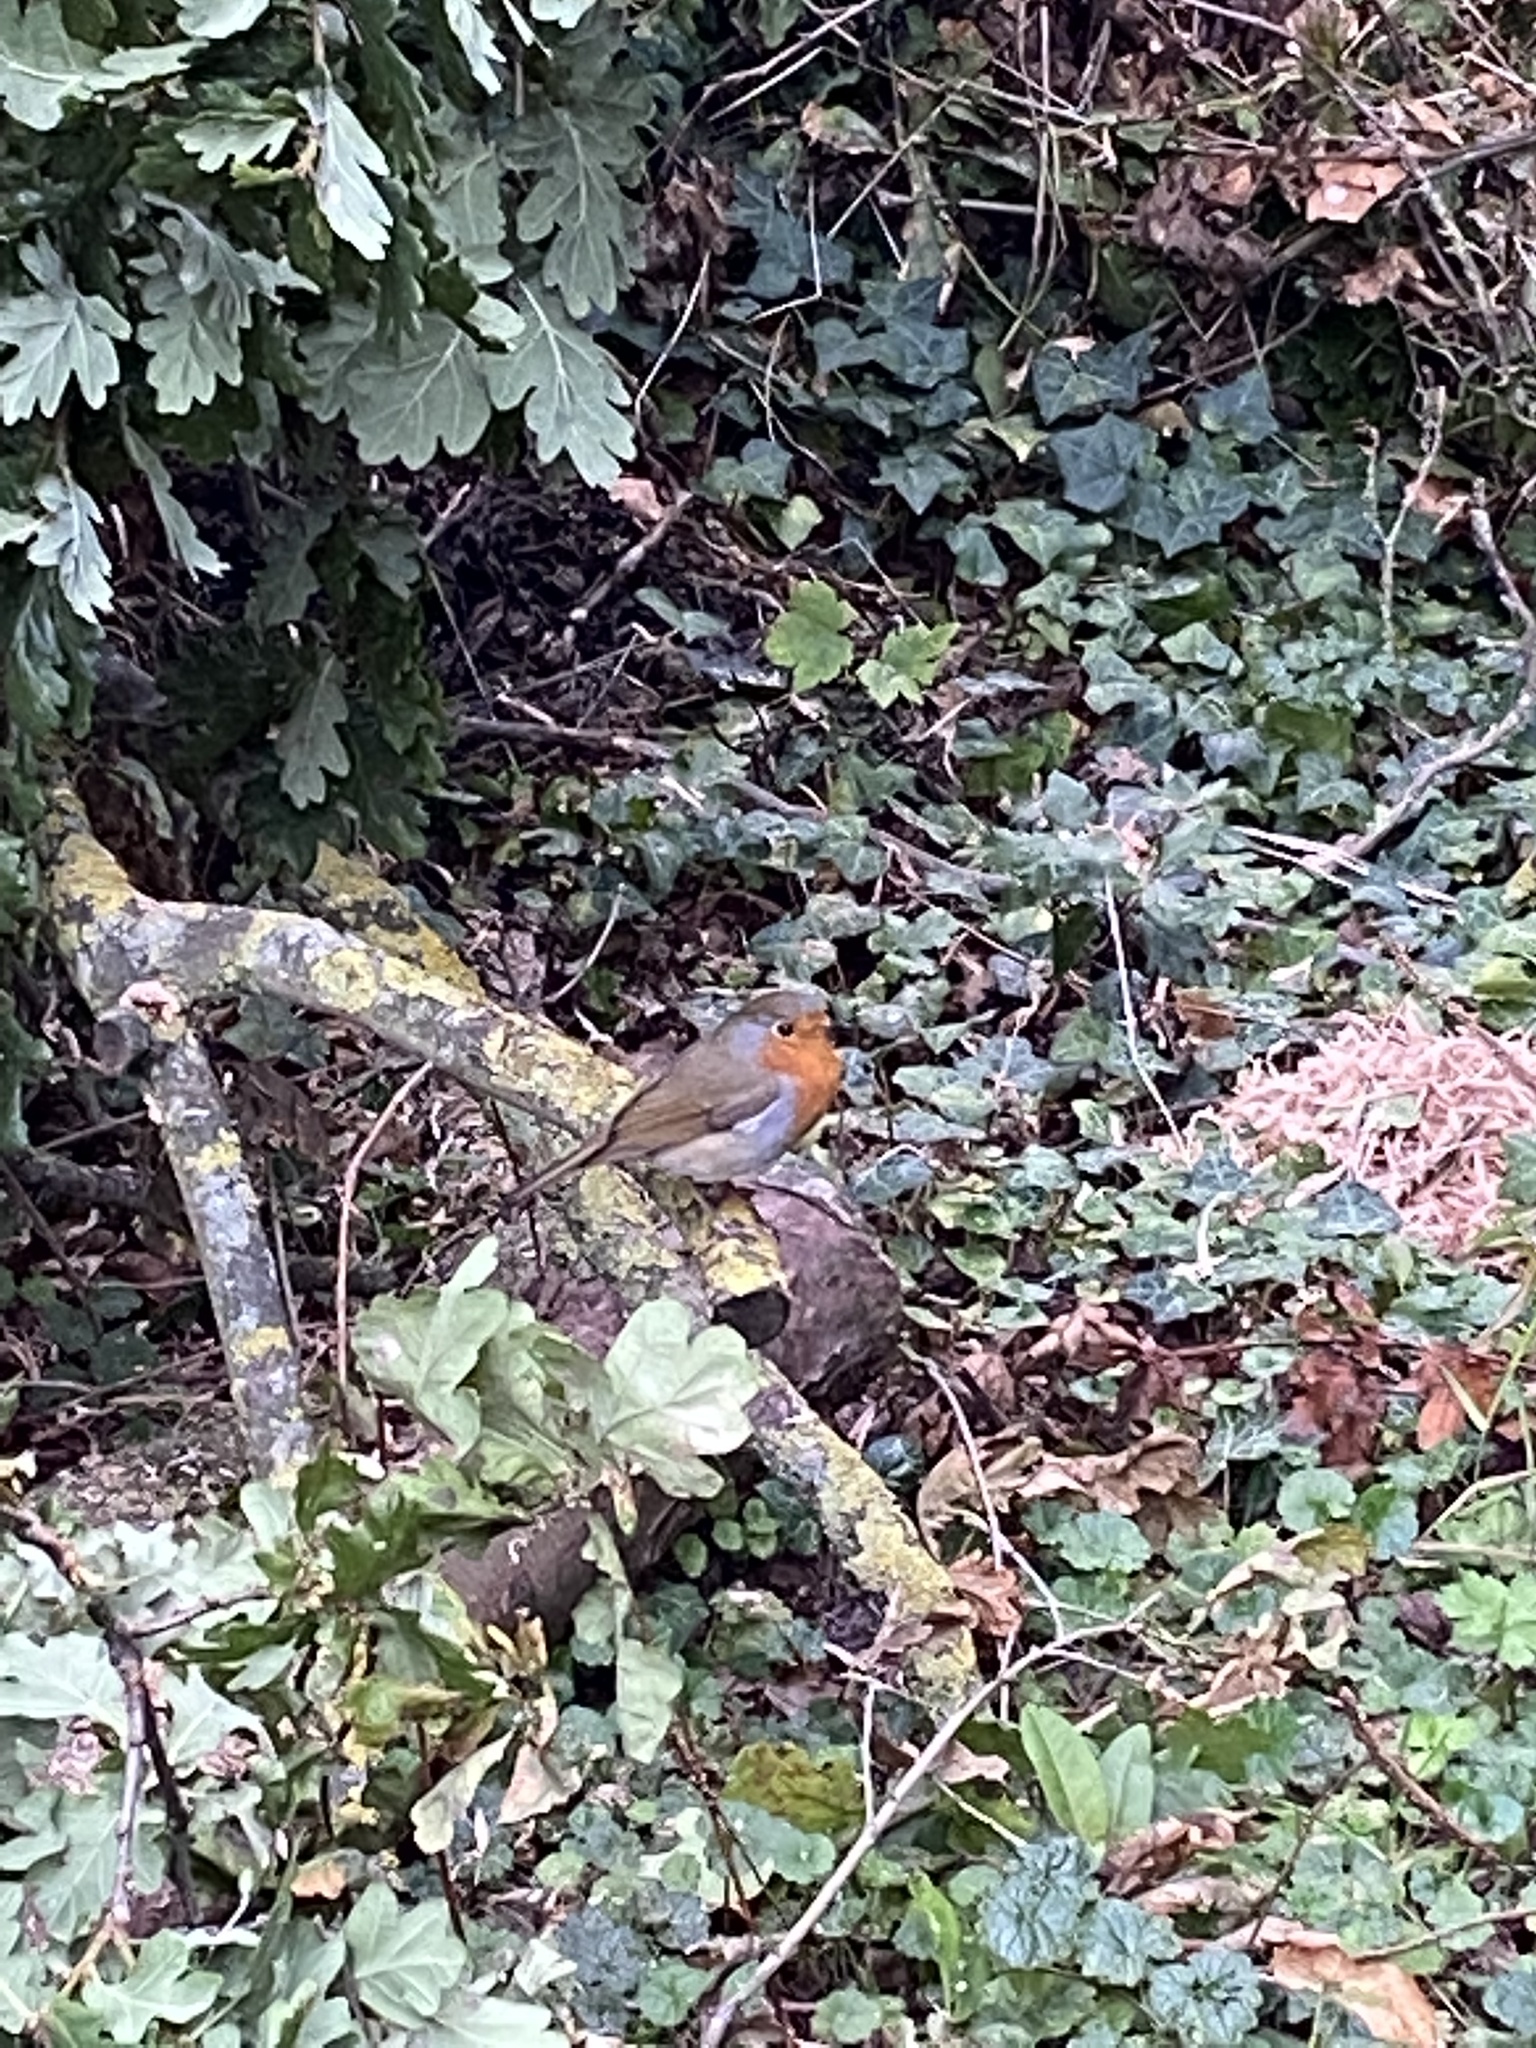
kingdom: Animalia
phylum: Chordata
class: Aves
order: Passeriformes
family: Muscicapidae
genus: Erithacus
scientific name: Erithacus rubecula
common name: European robin
